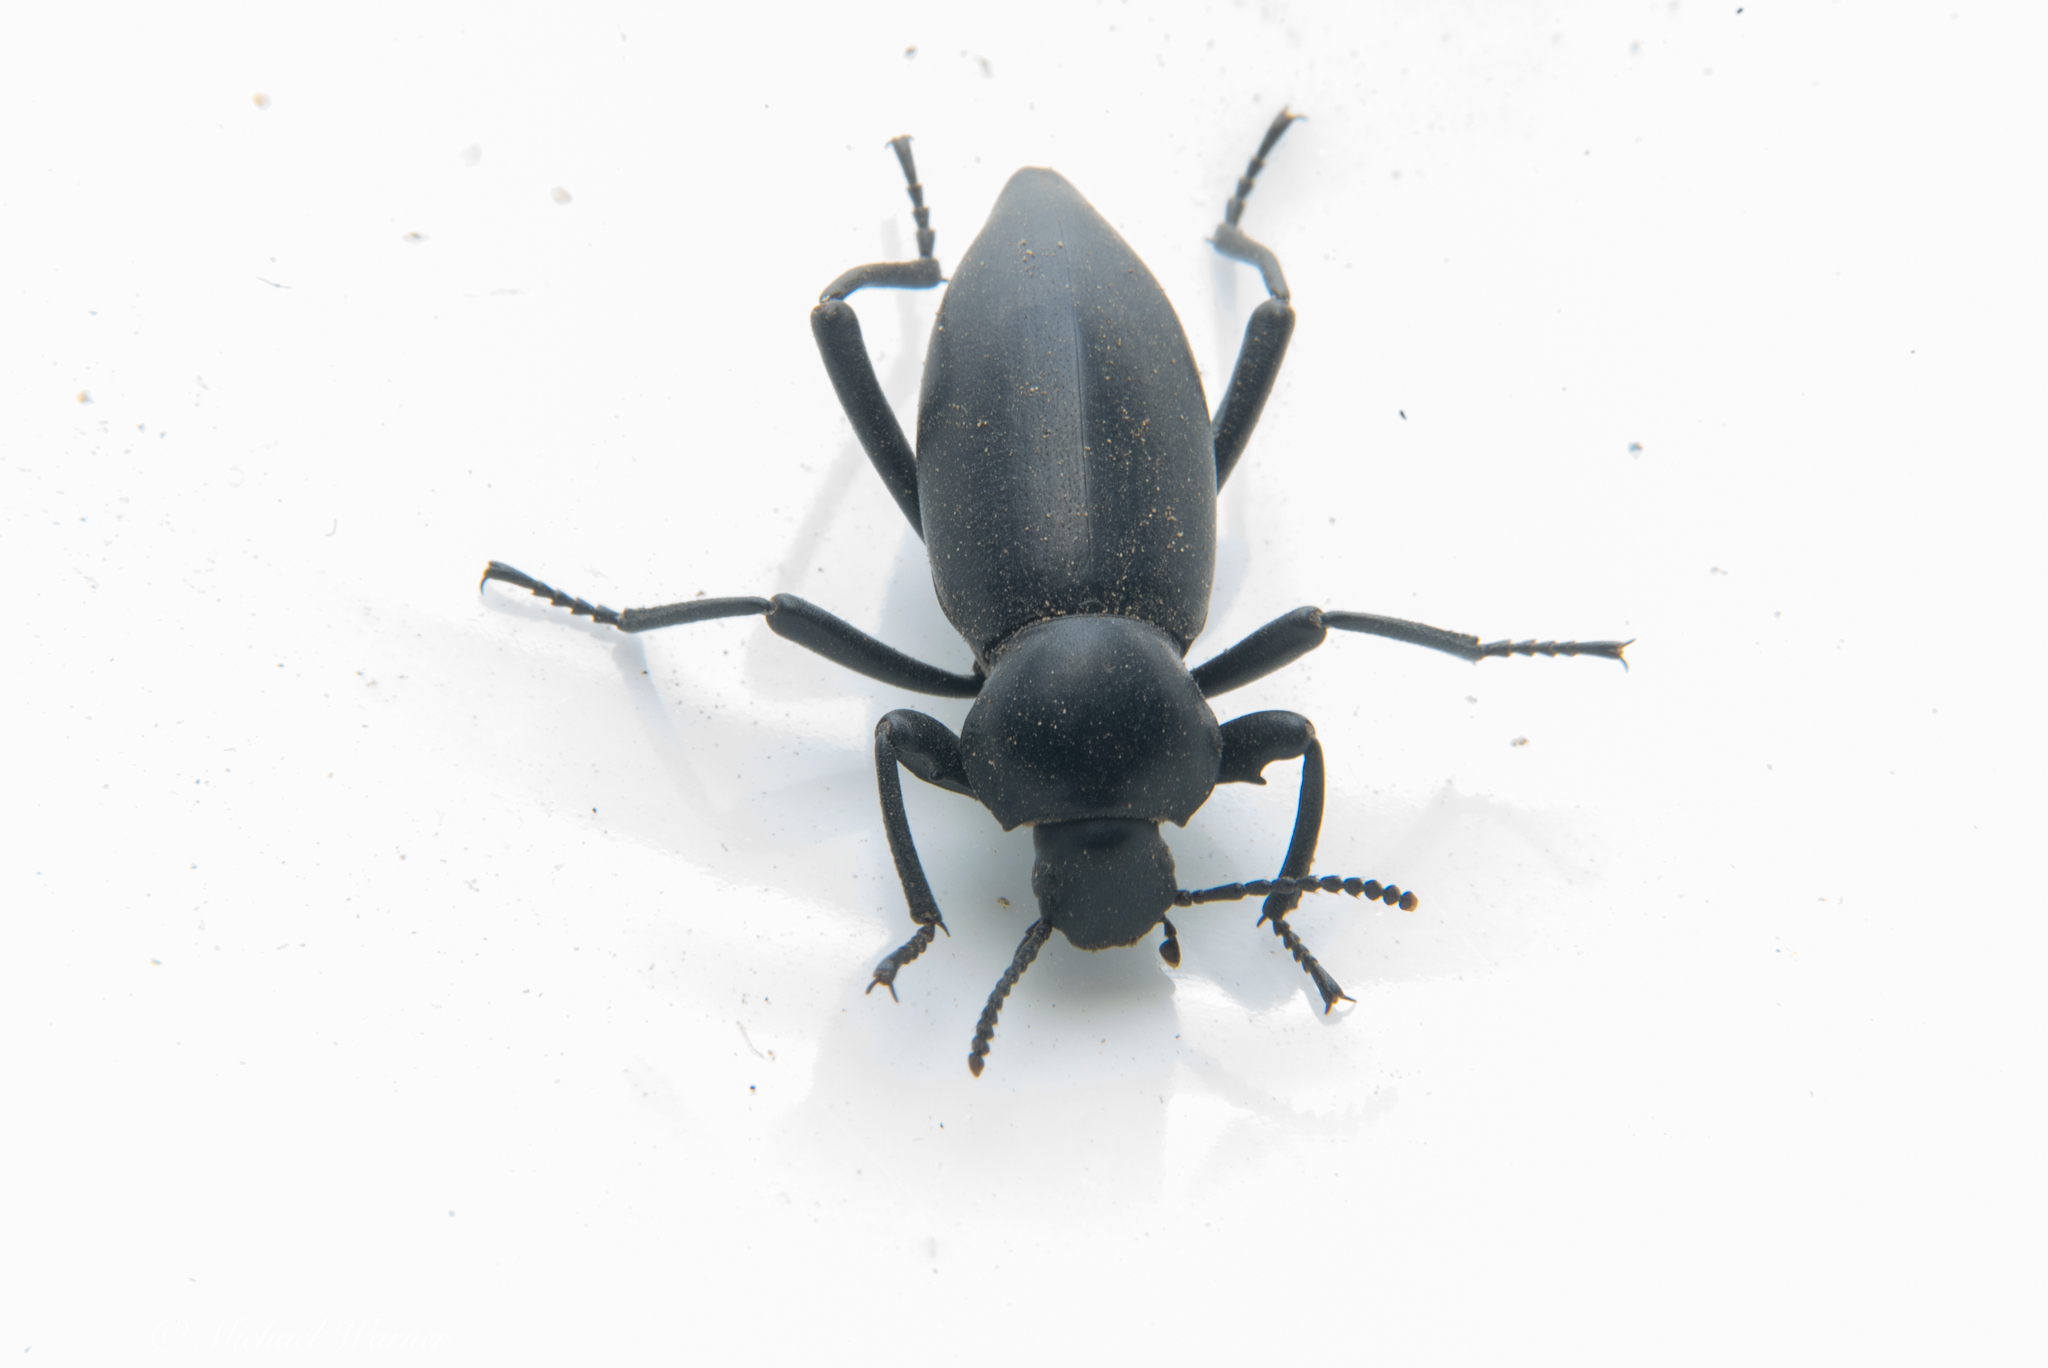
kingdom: Animalia
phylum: Arthropoda
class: Insecta
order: Coleoptera
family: Tenebrionidae
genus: Eleodes
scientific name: Eleodes dentipes
